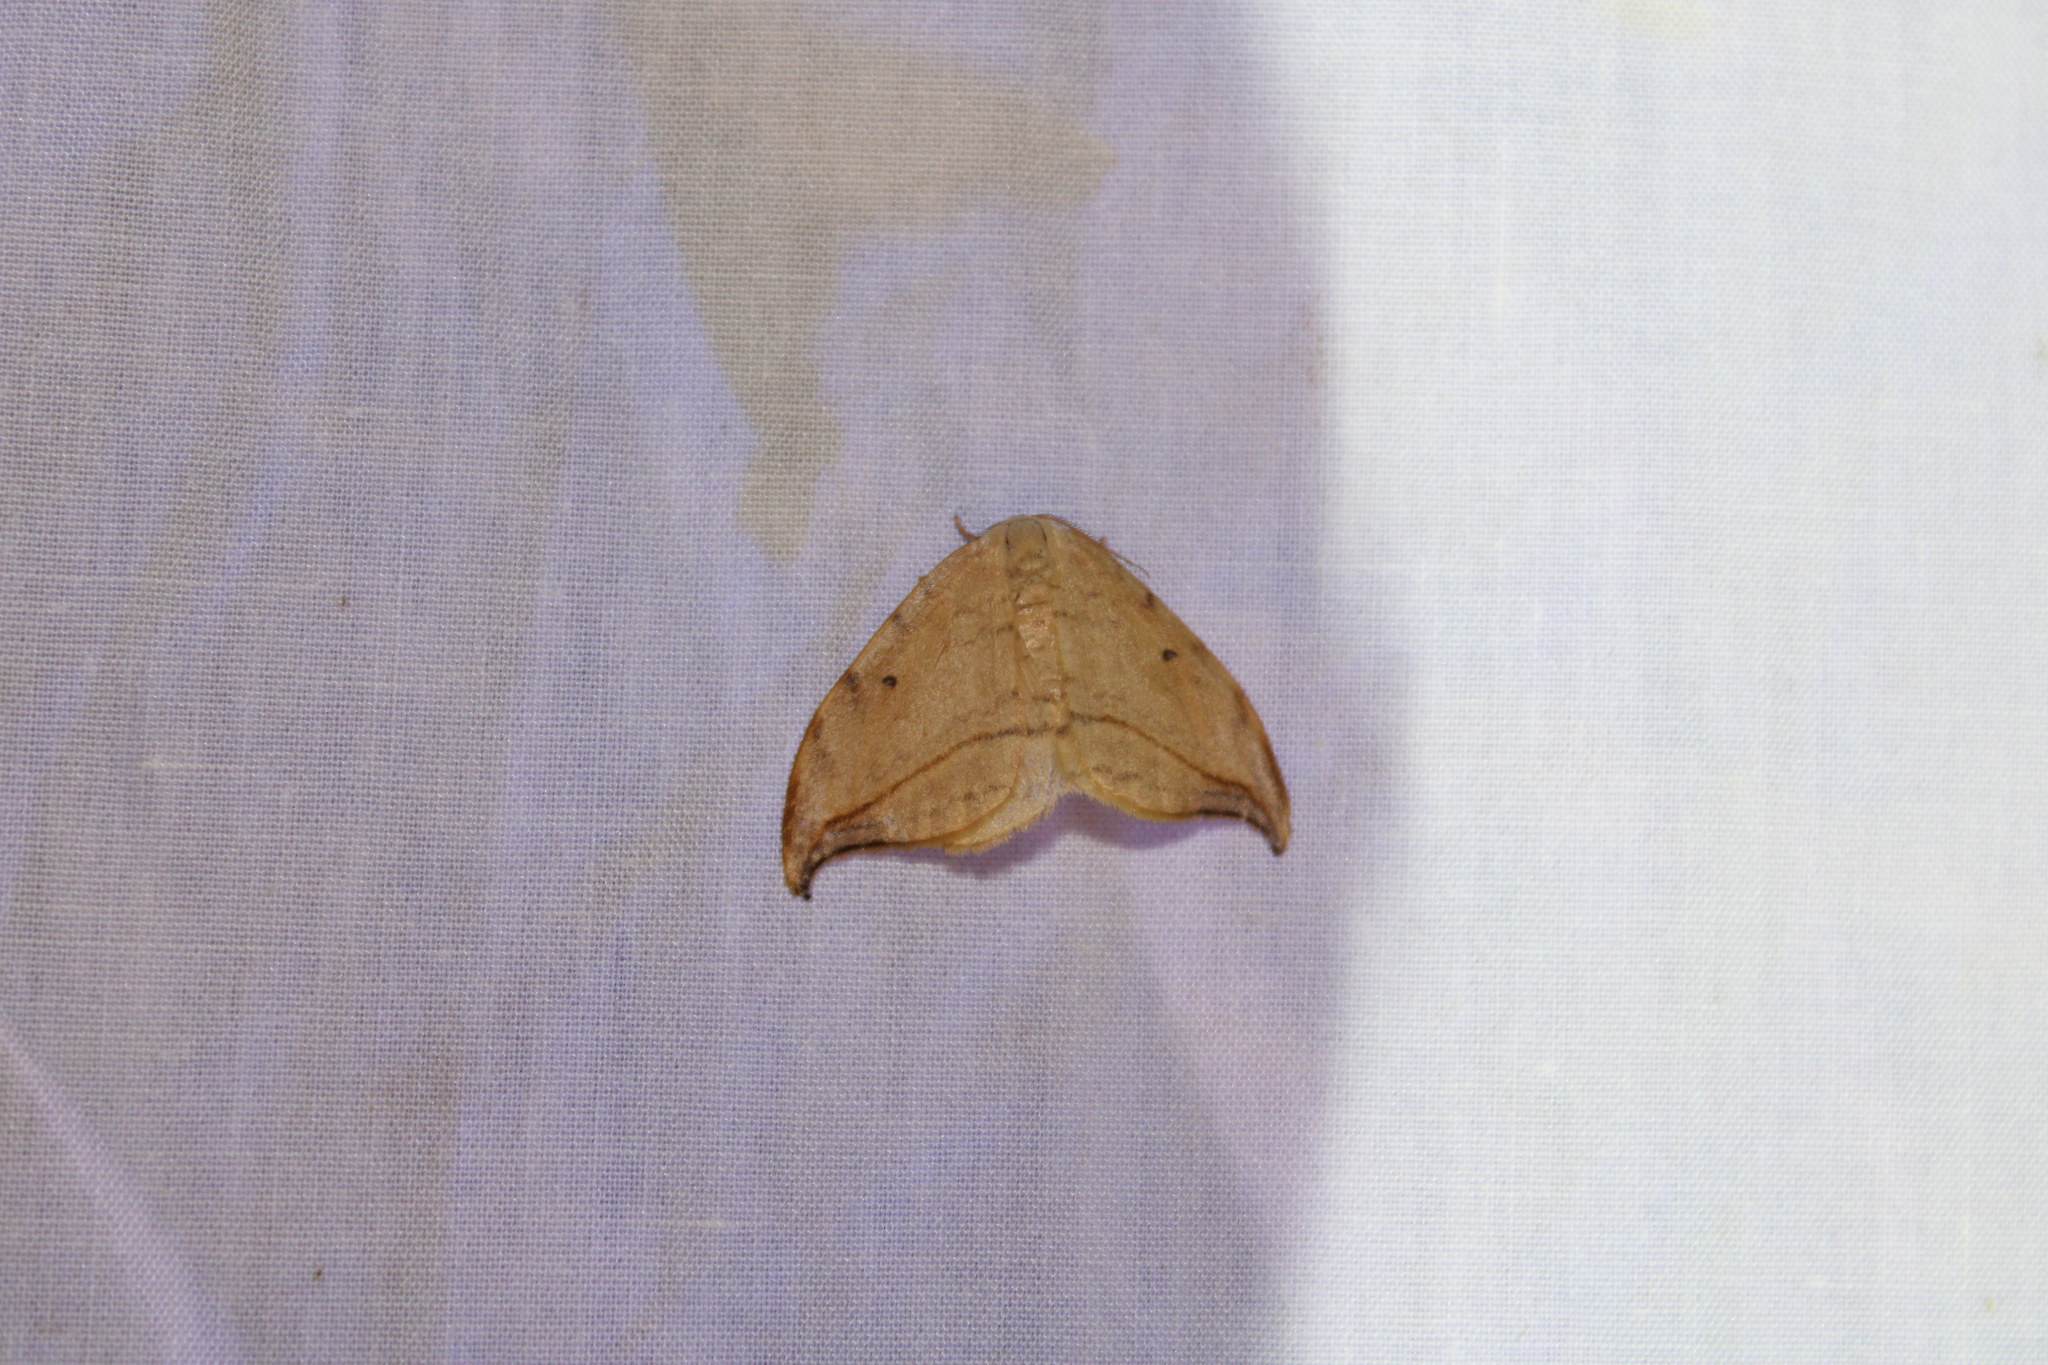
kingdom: Animalia
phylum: Arthropoda
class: Insecta
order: Lepidoptera
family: Drepanidae
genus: Drepana
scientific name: Drepana arcuata
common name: Arched hooktip moth
